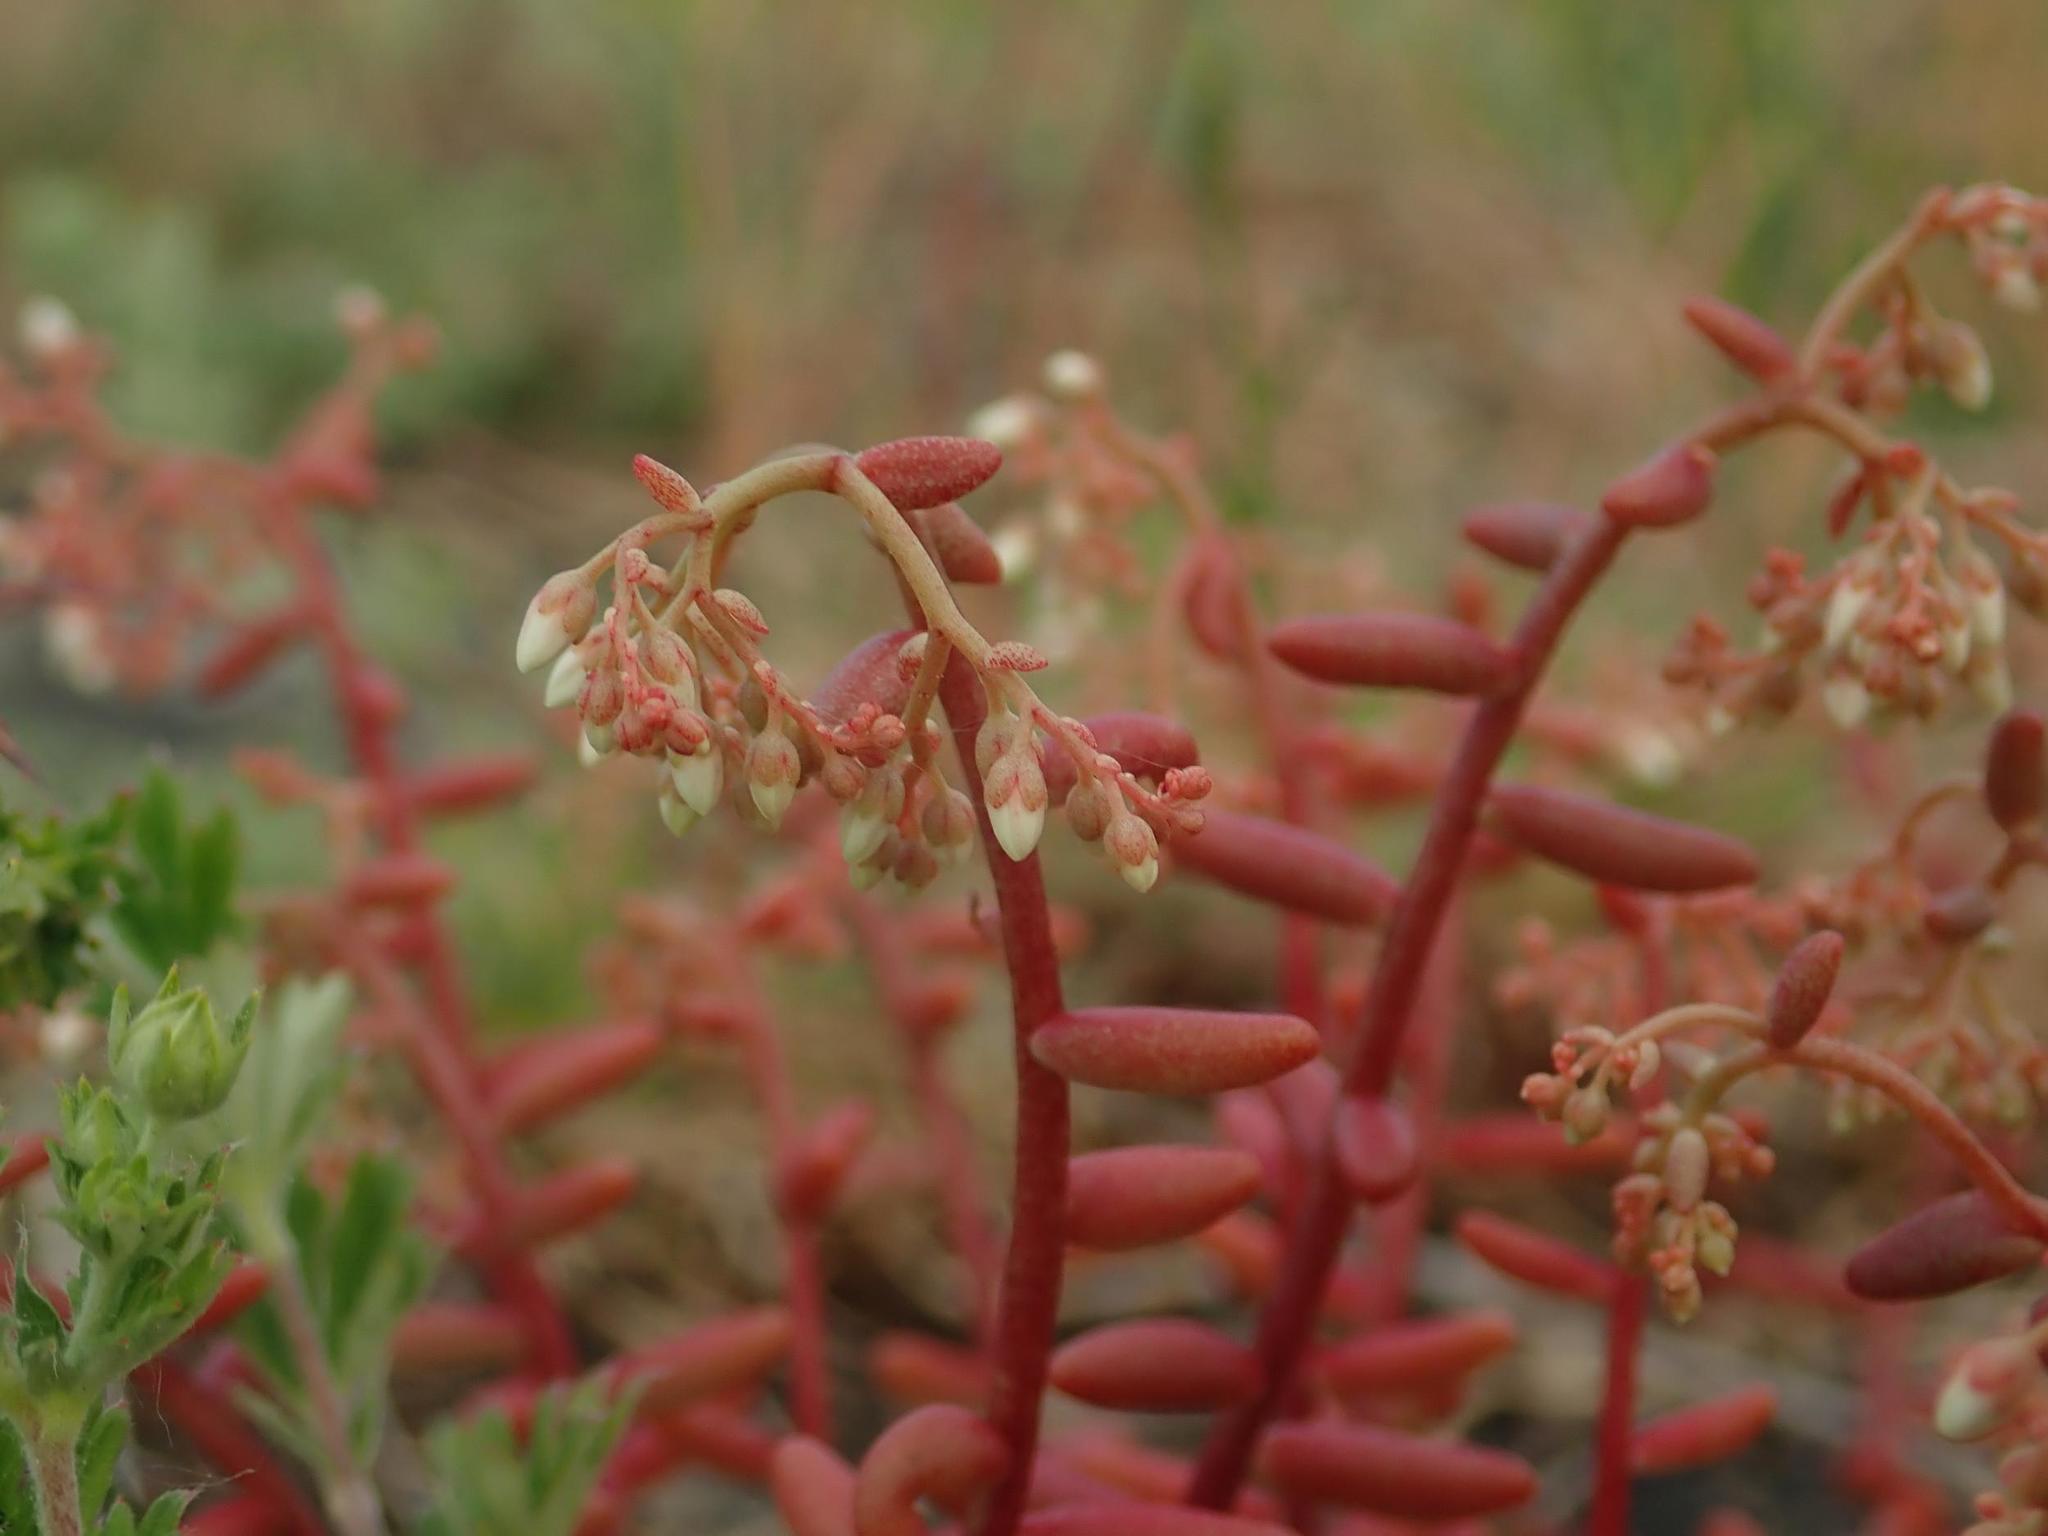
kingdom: Plantae
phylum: Tracheophyta
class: Magnoliopsida
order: Saxifragales
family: Crassulaceae
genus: Sedum
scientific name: Sedum album
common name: White stonecrop
